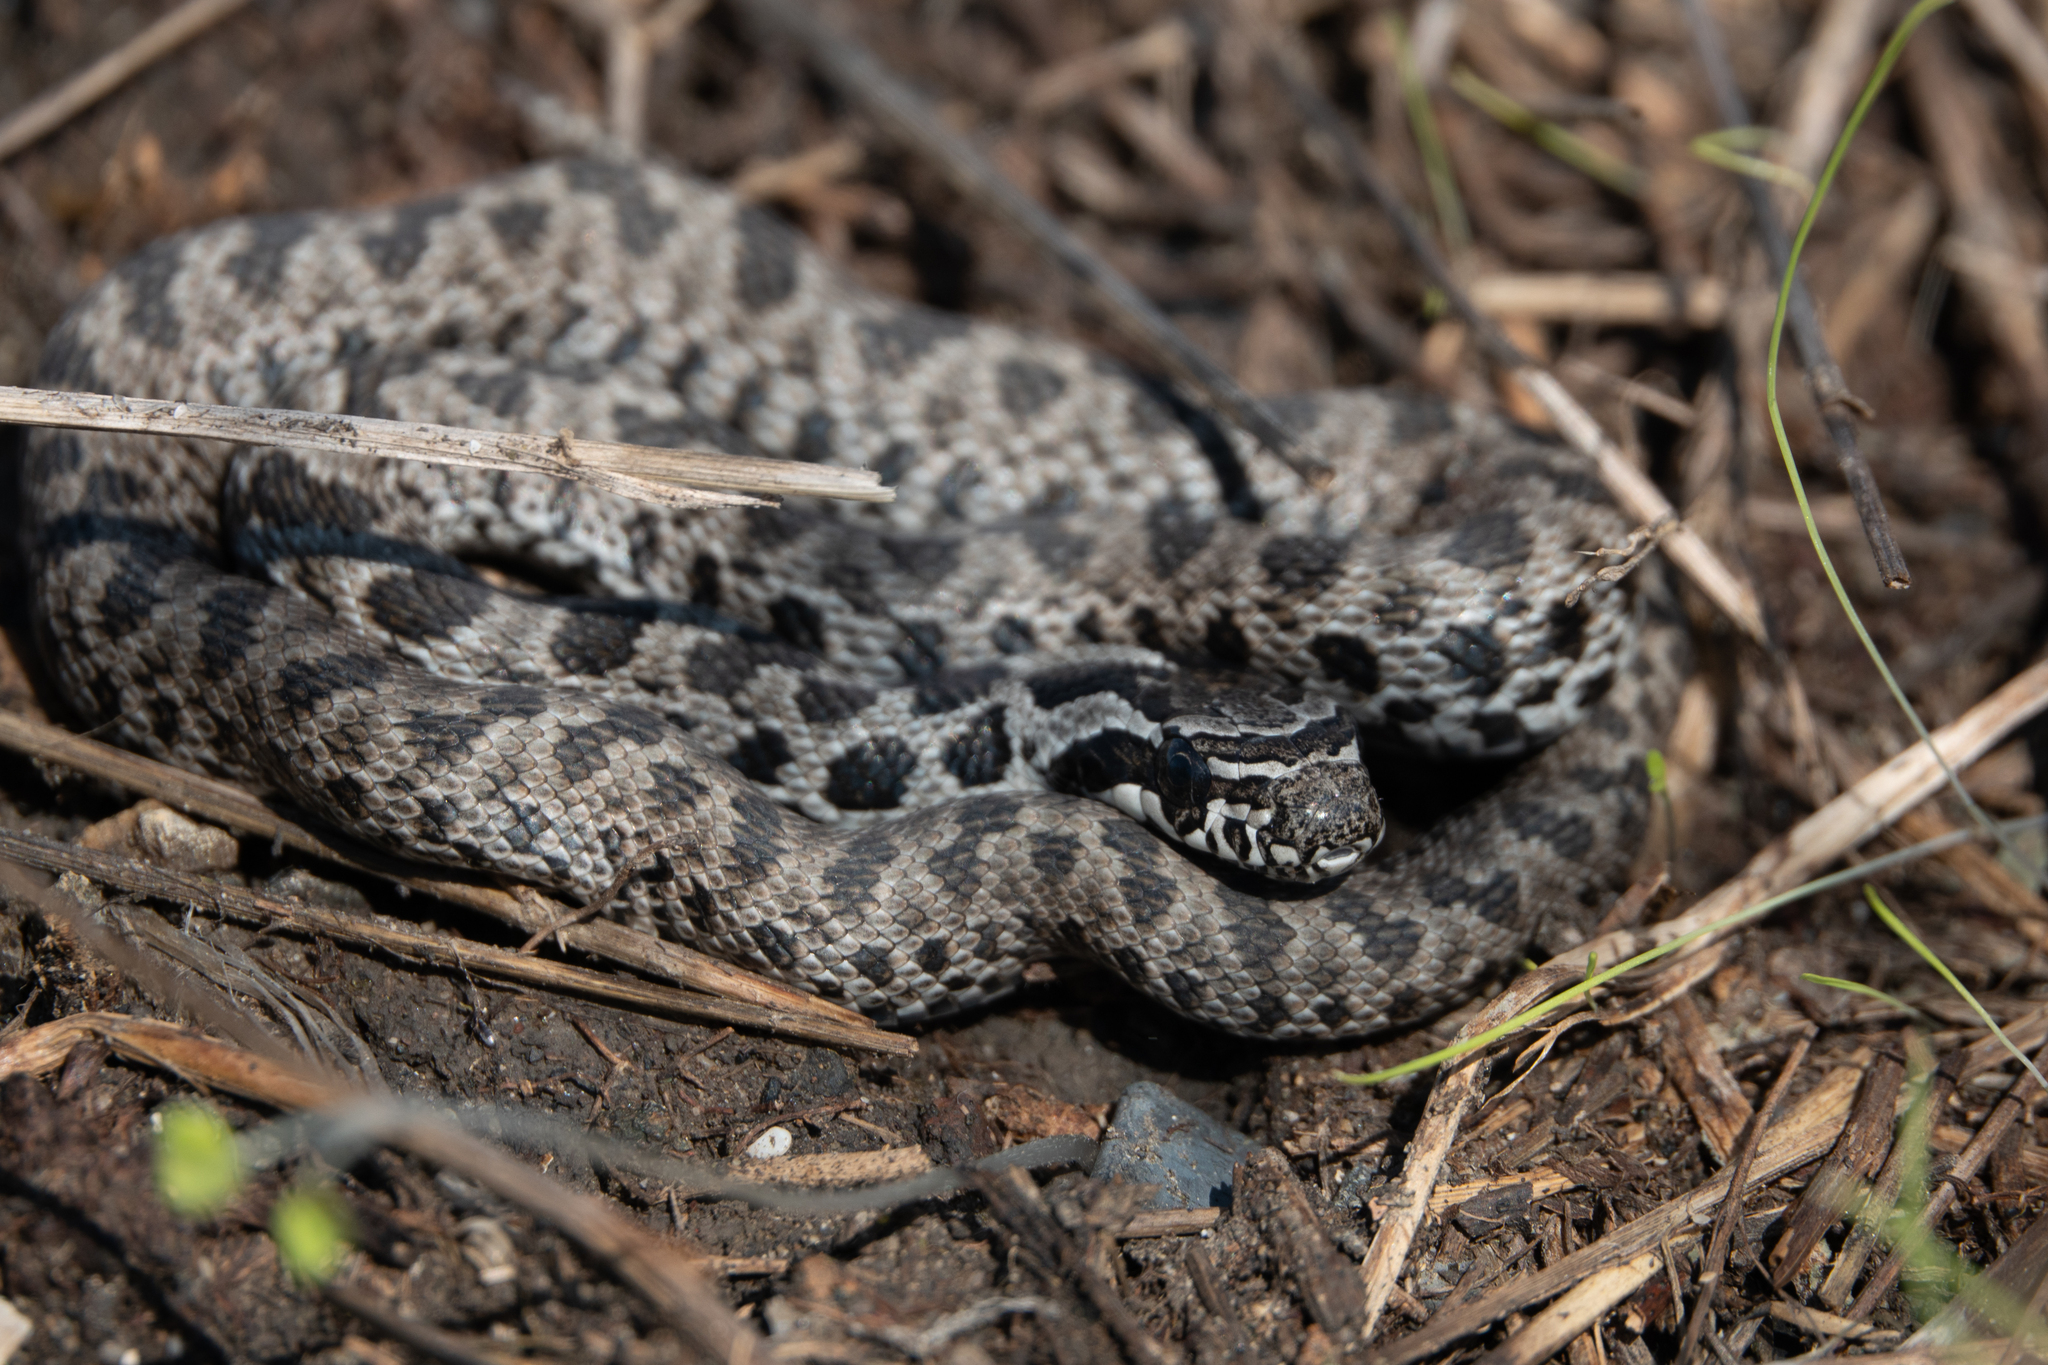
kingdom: Animalia
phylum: Chordata
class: Squamata
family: Colubridae
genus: Elaphe
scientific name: Elaphe sauromates
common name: Eastern four-lined ratsnake
